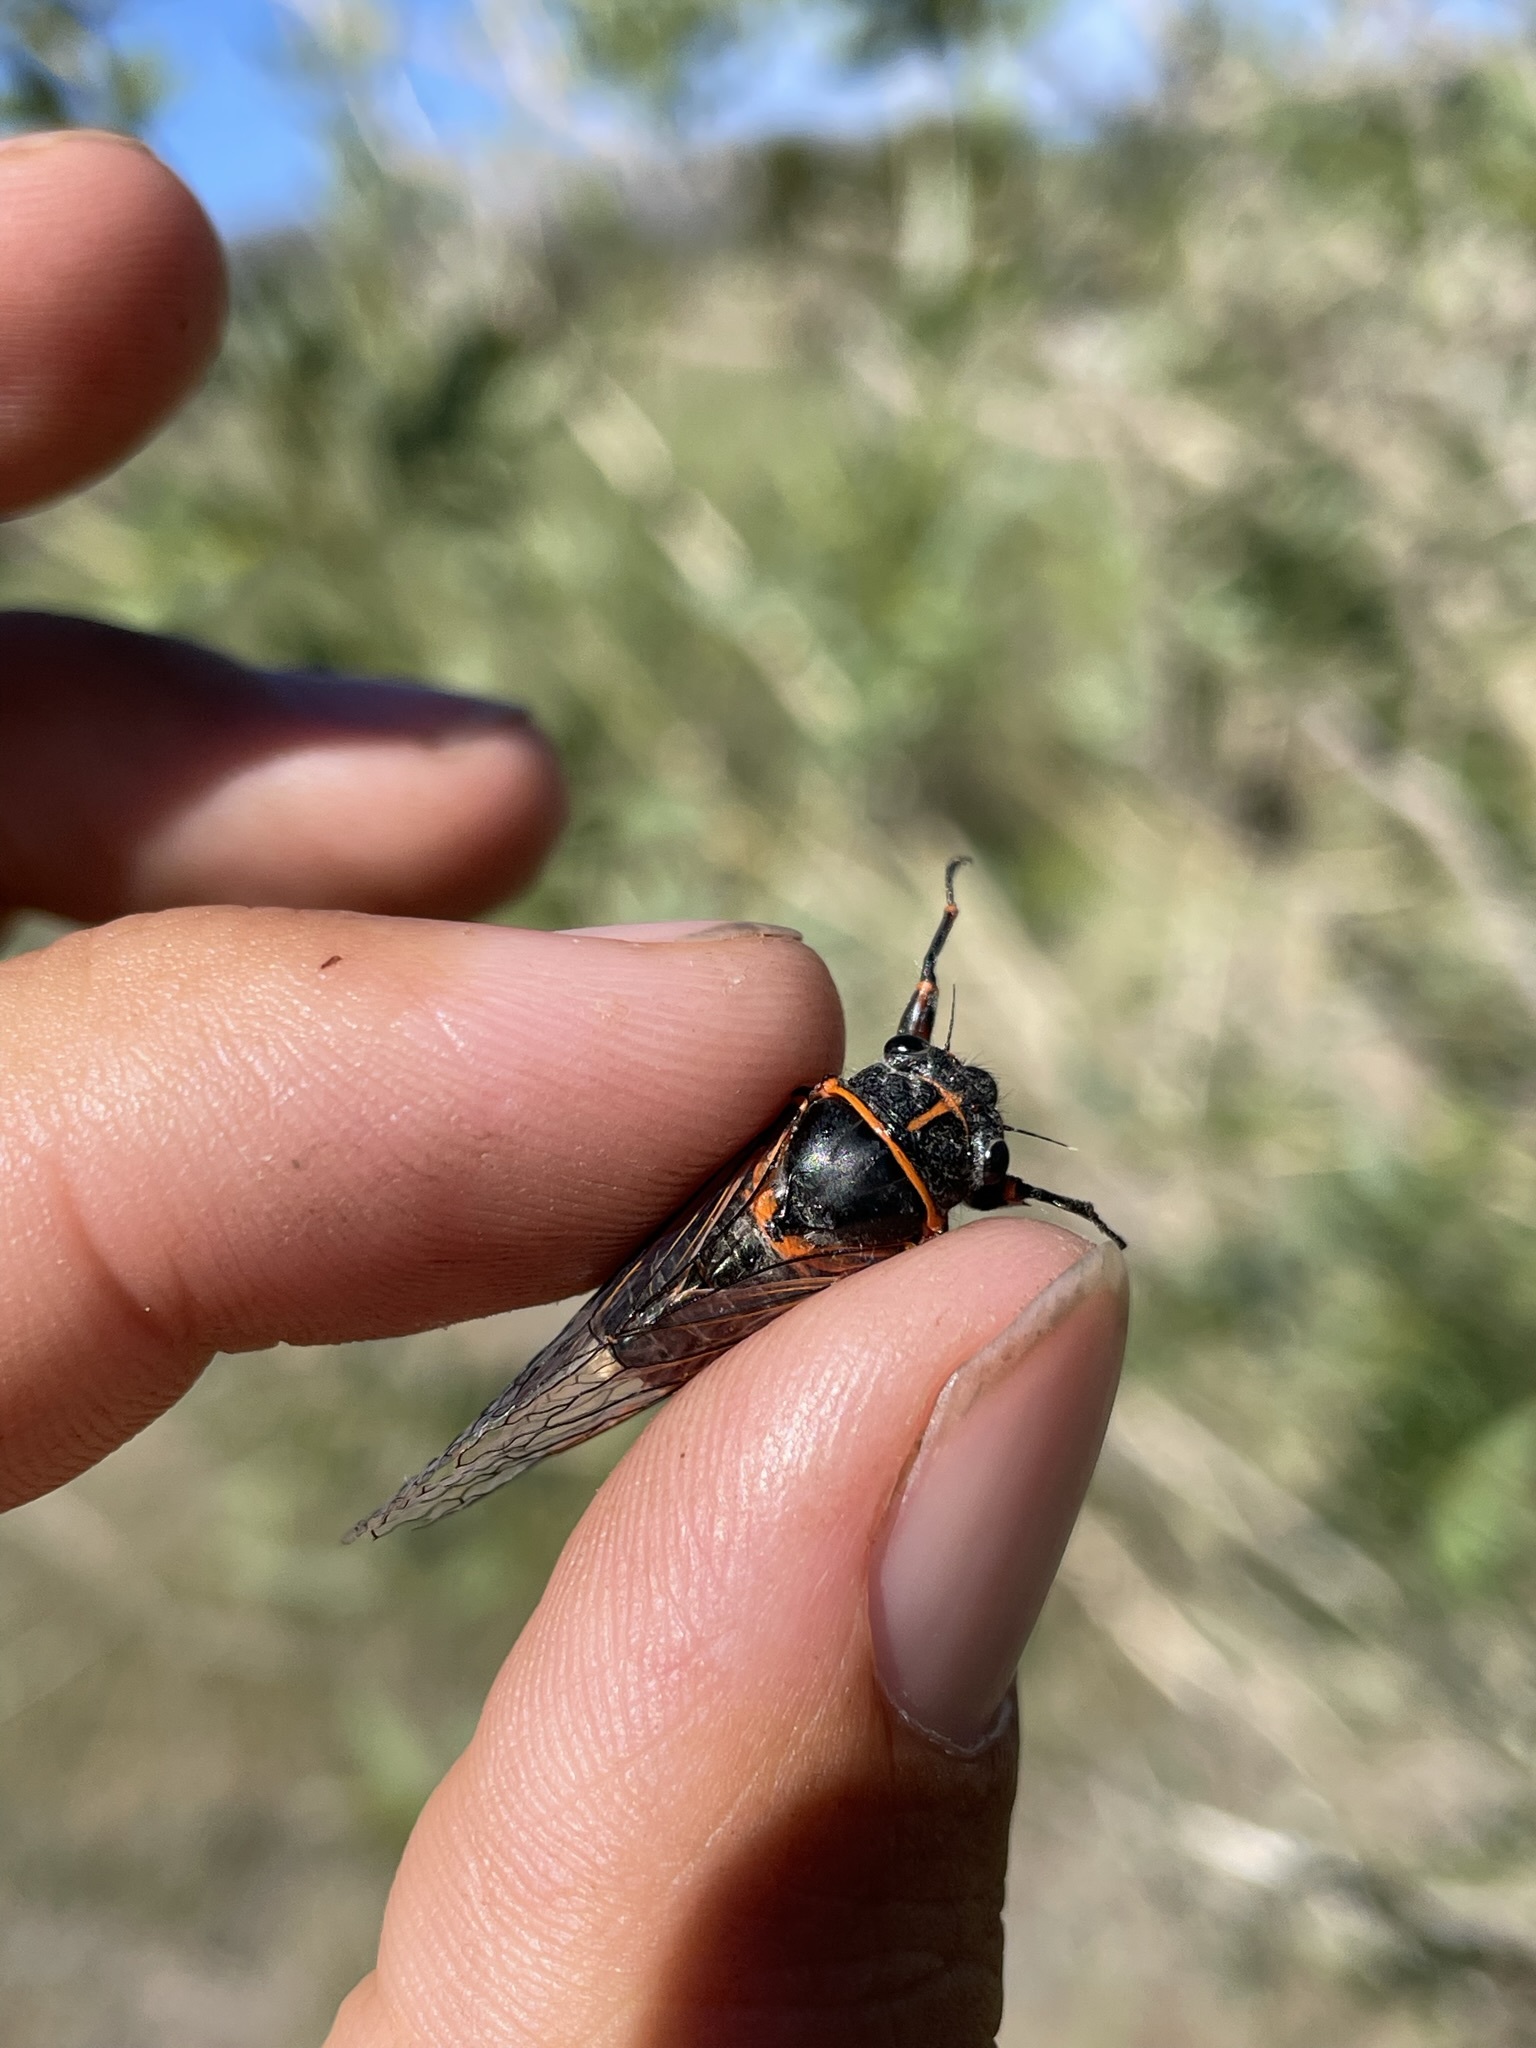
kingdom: Fungi
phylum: Entomophthoromycota
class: Entomophthoromycetes
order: Entomophthorales
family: Entomophthoraceae
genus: Massospora
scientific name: Massospora levispora
